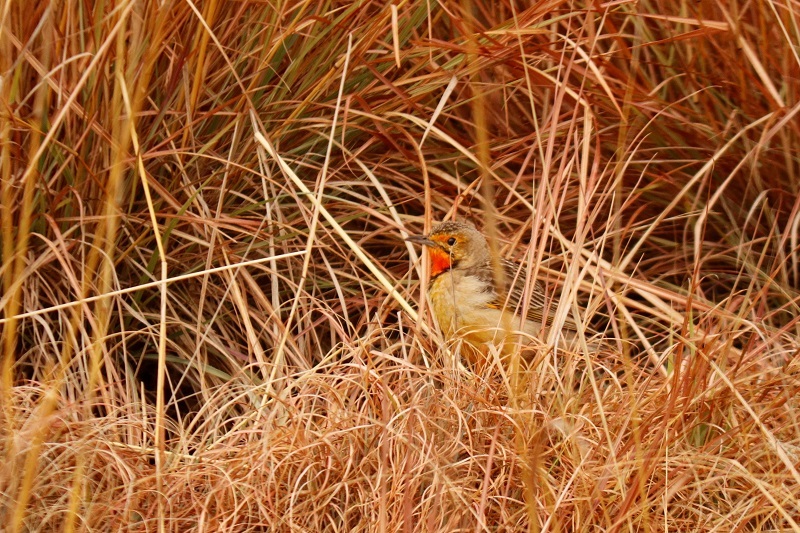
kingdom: Animalia
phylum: Chordata
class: Aves
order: Passeriformes
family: Motacillidae
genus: Macronyx
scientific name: Macronyx capensis
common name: Cape longclaw
